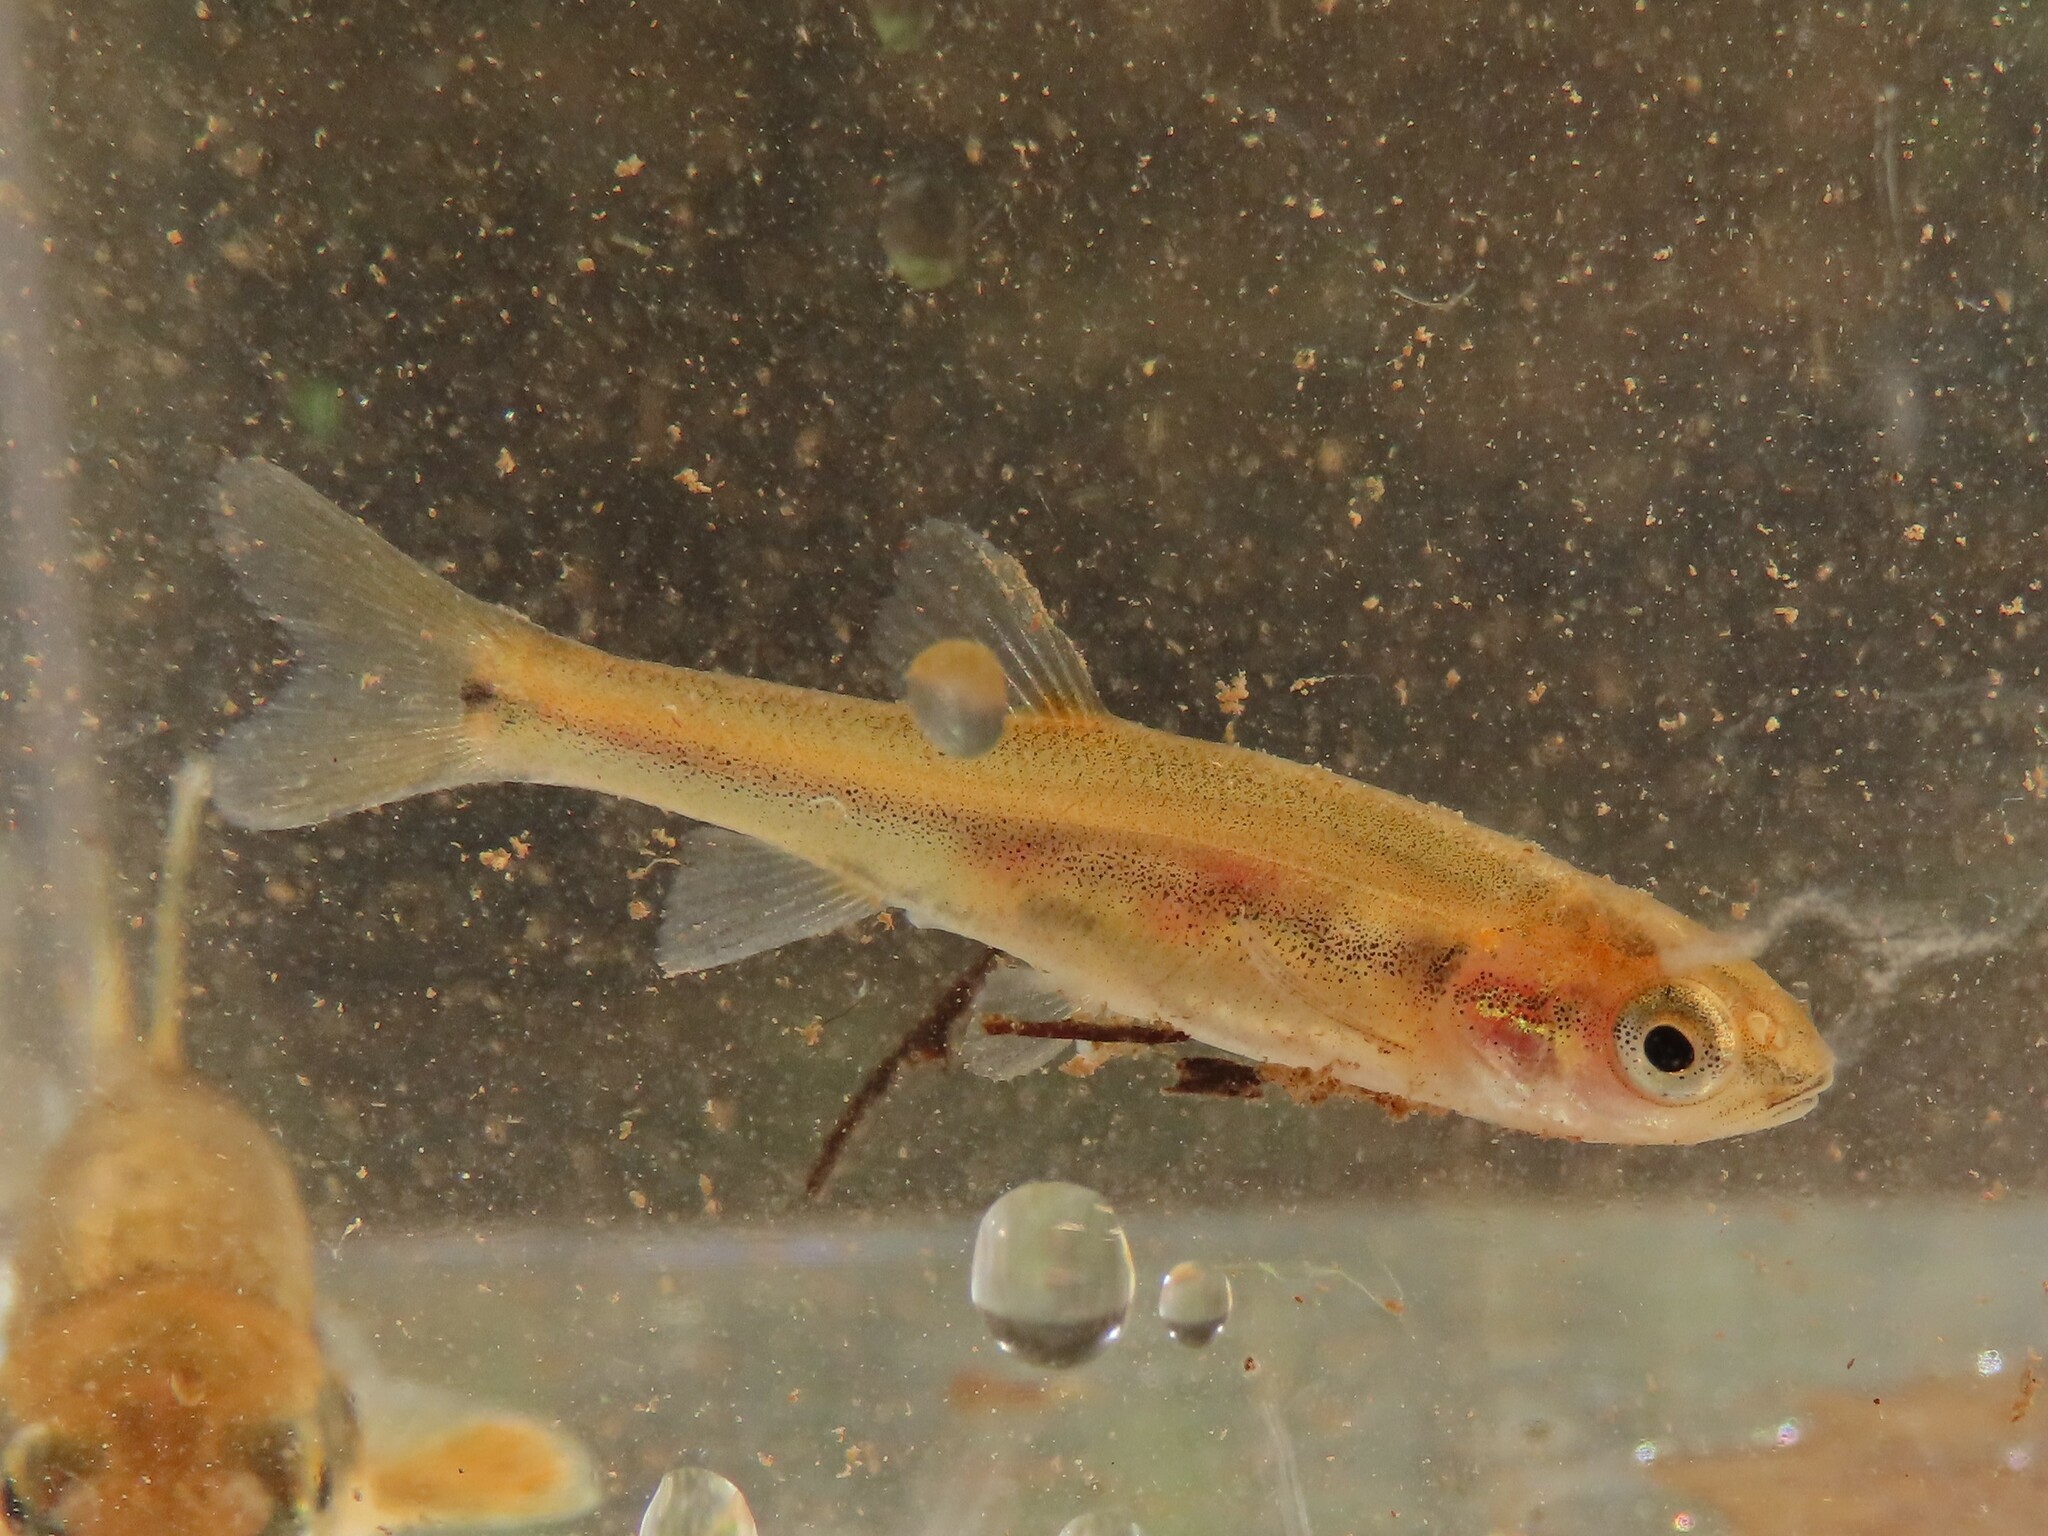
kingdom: Animalia
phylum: Chordata
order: Cypriniformes
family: Cyprinidae
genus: Semotilus
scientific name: Semotilus atromaculatus
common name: Creek chub
